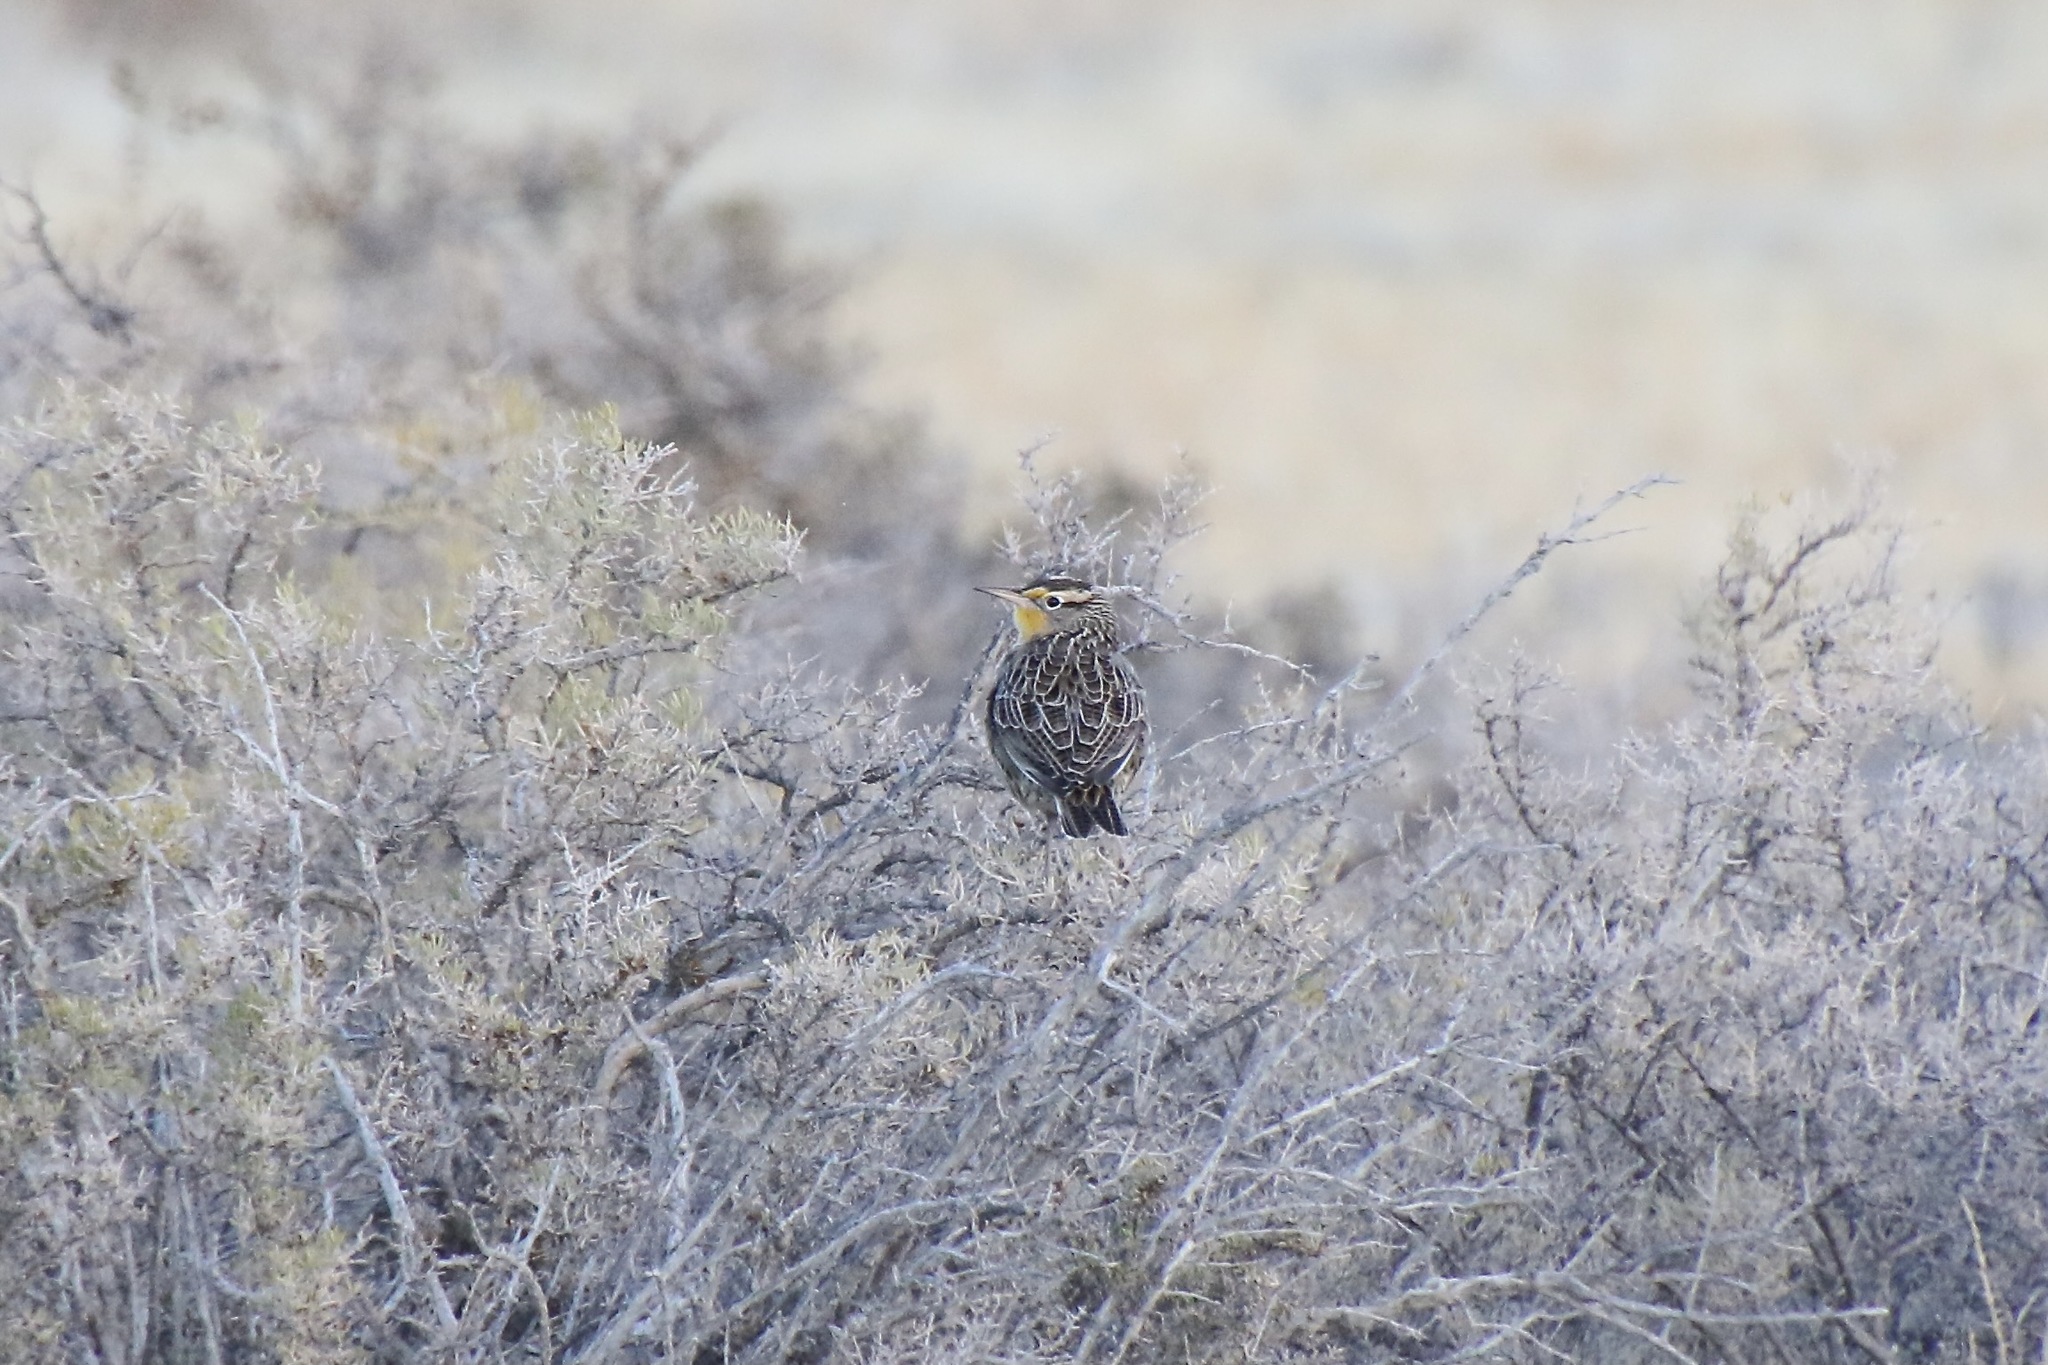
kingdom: Animalia
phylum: Chordata
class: Aves
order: Passeriformes
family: Icteridae
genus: Sturnella
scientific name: Sturnella neglecta
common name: Western meadowlark
